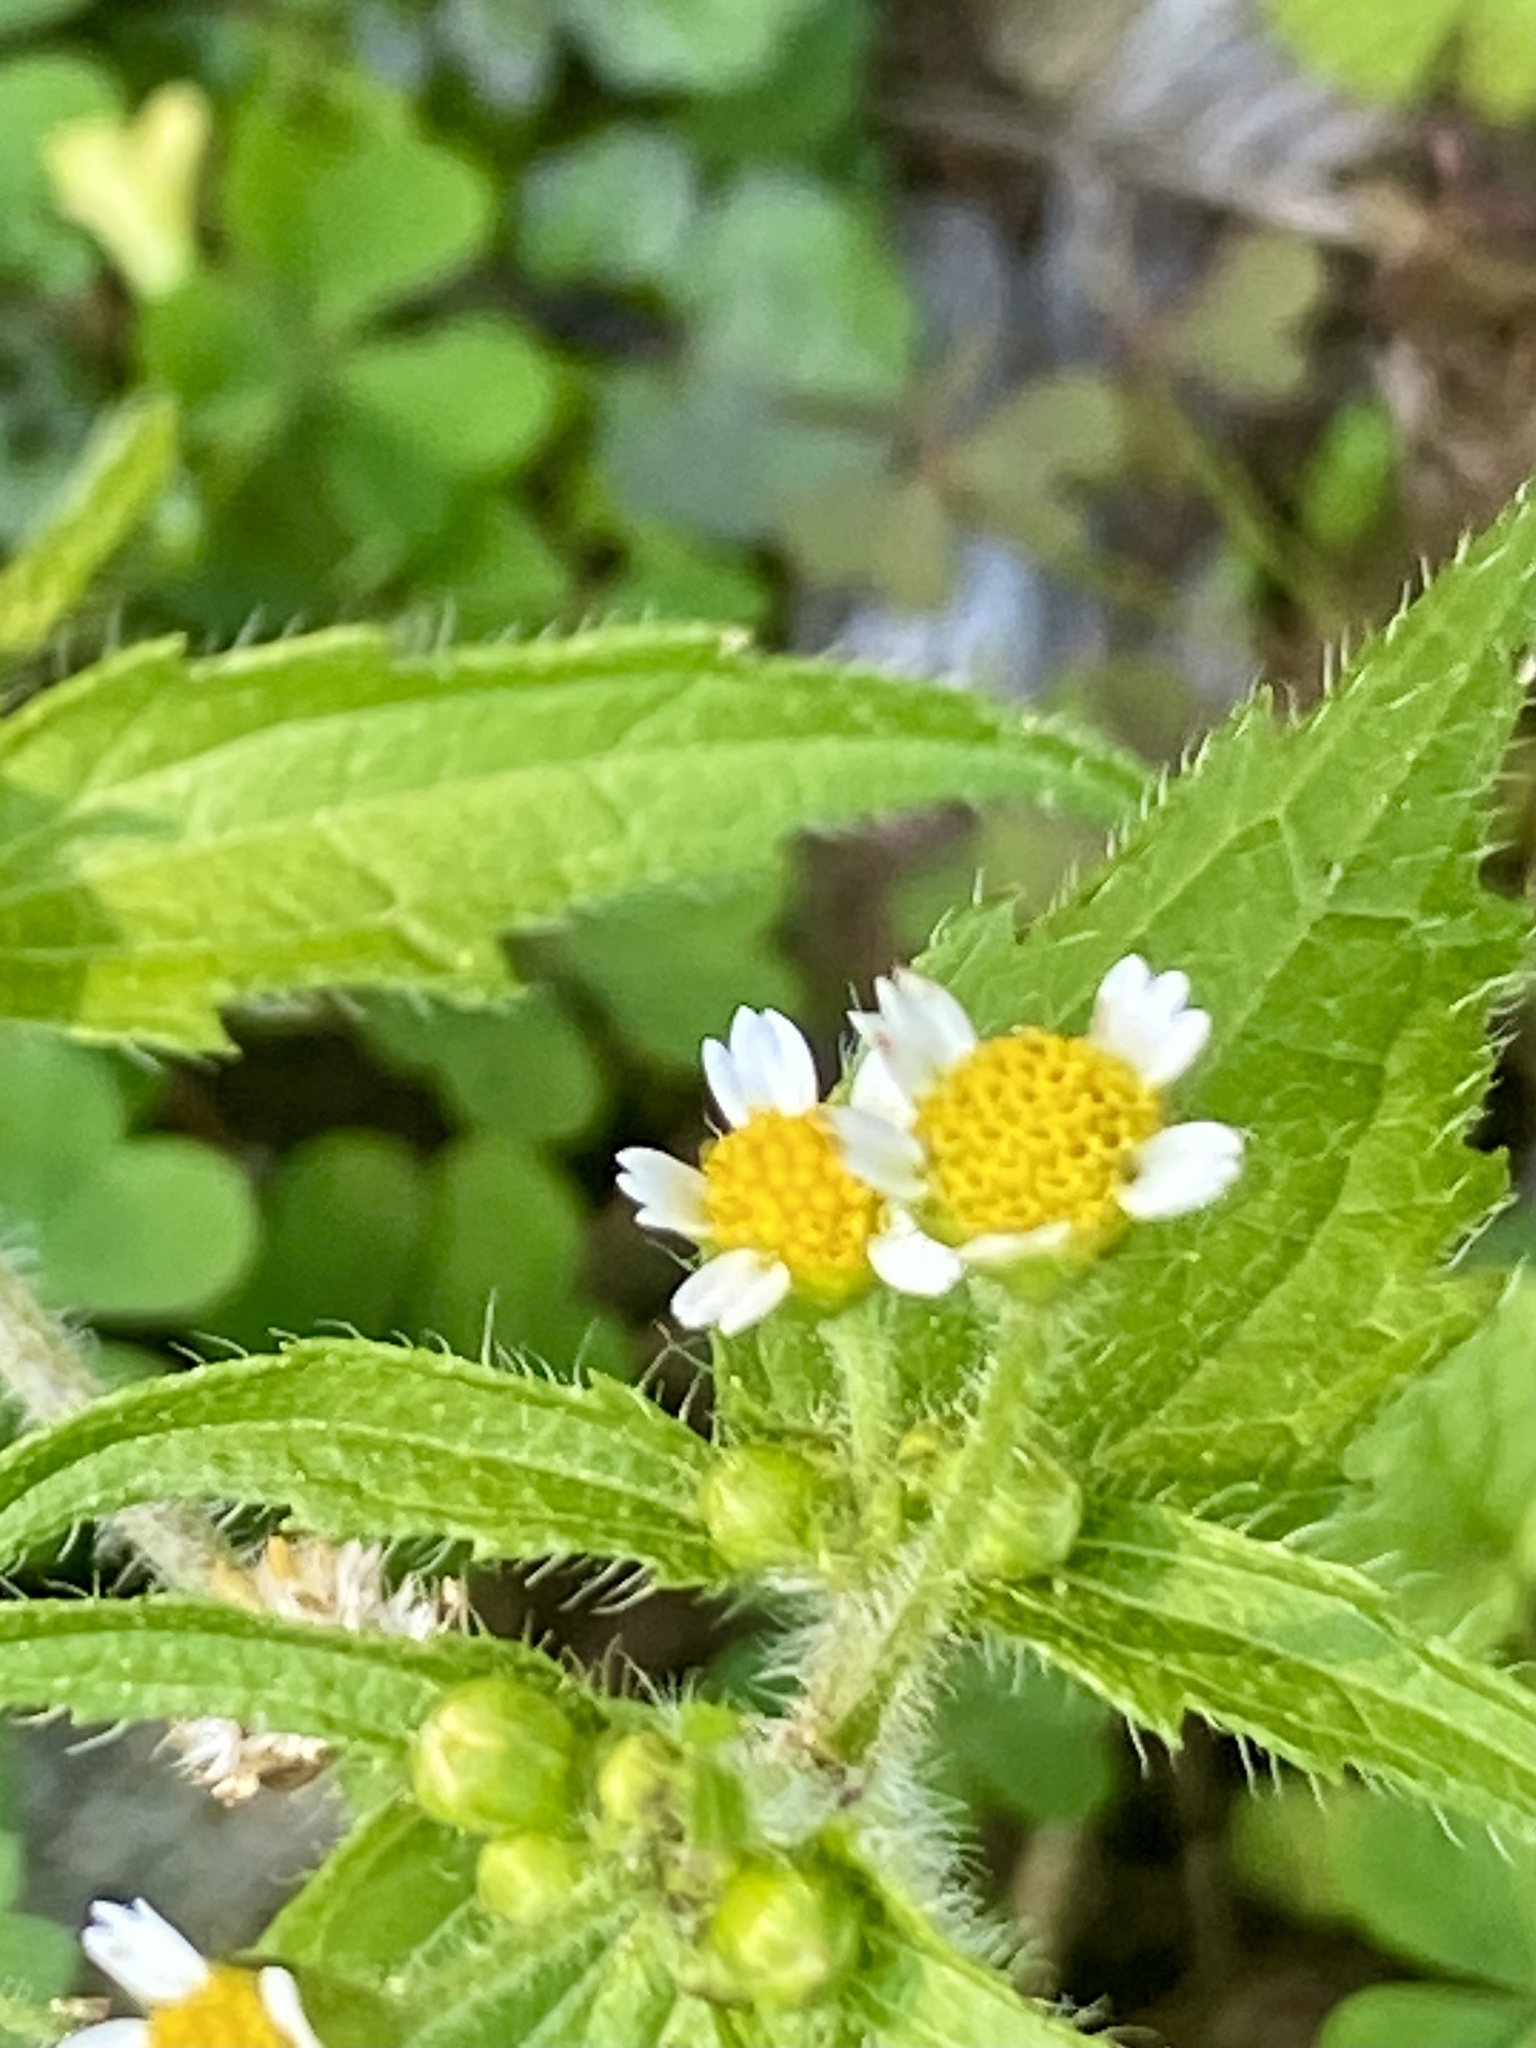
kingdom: Plantae
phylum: Tracheophyta
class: Magnoliopsida
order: Asterales
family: Asteraceae
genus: Galinsoga
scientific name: Galinsoga quadriradiata
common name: Shaggy soldier
